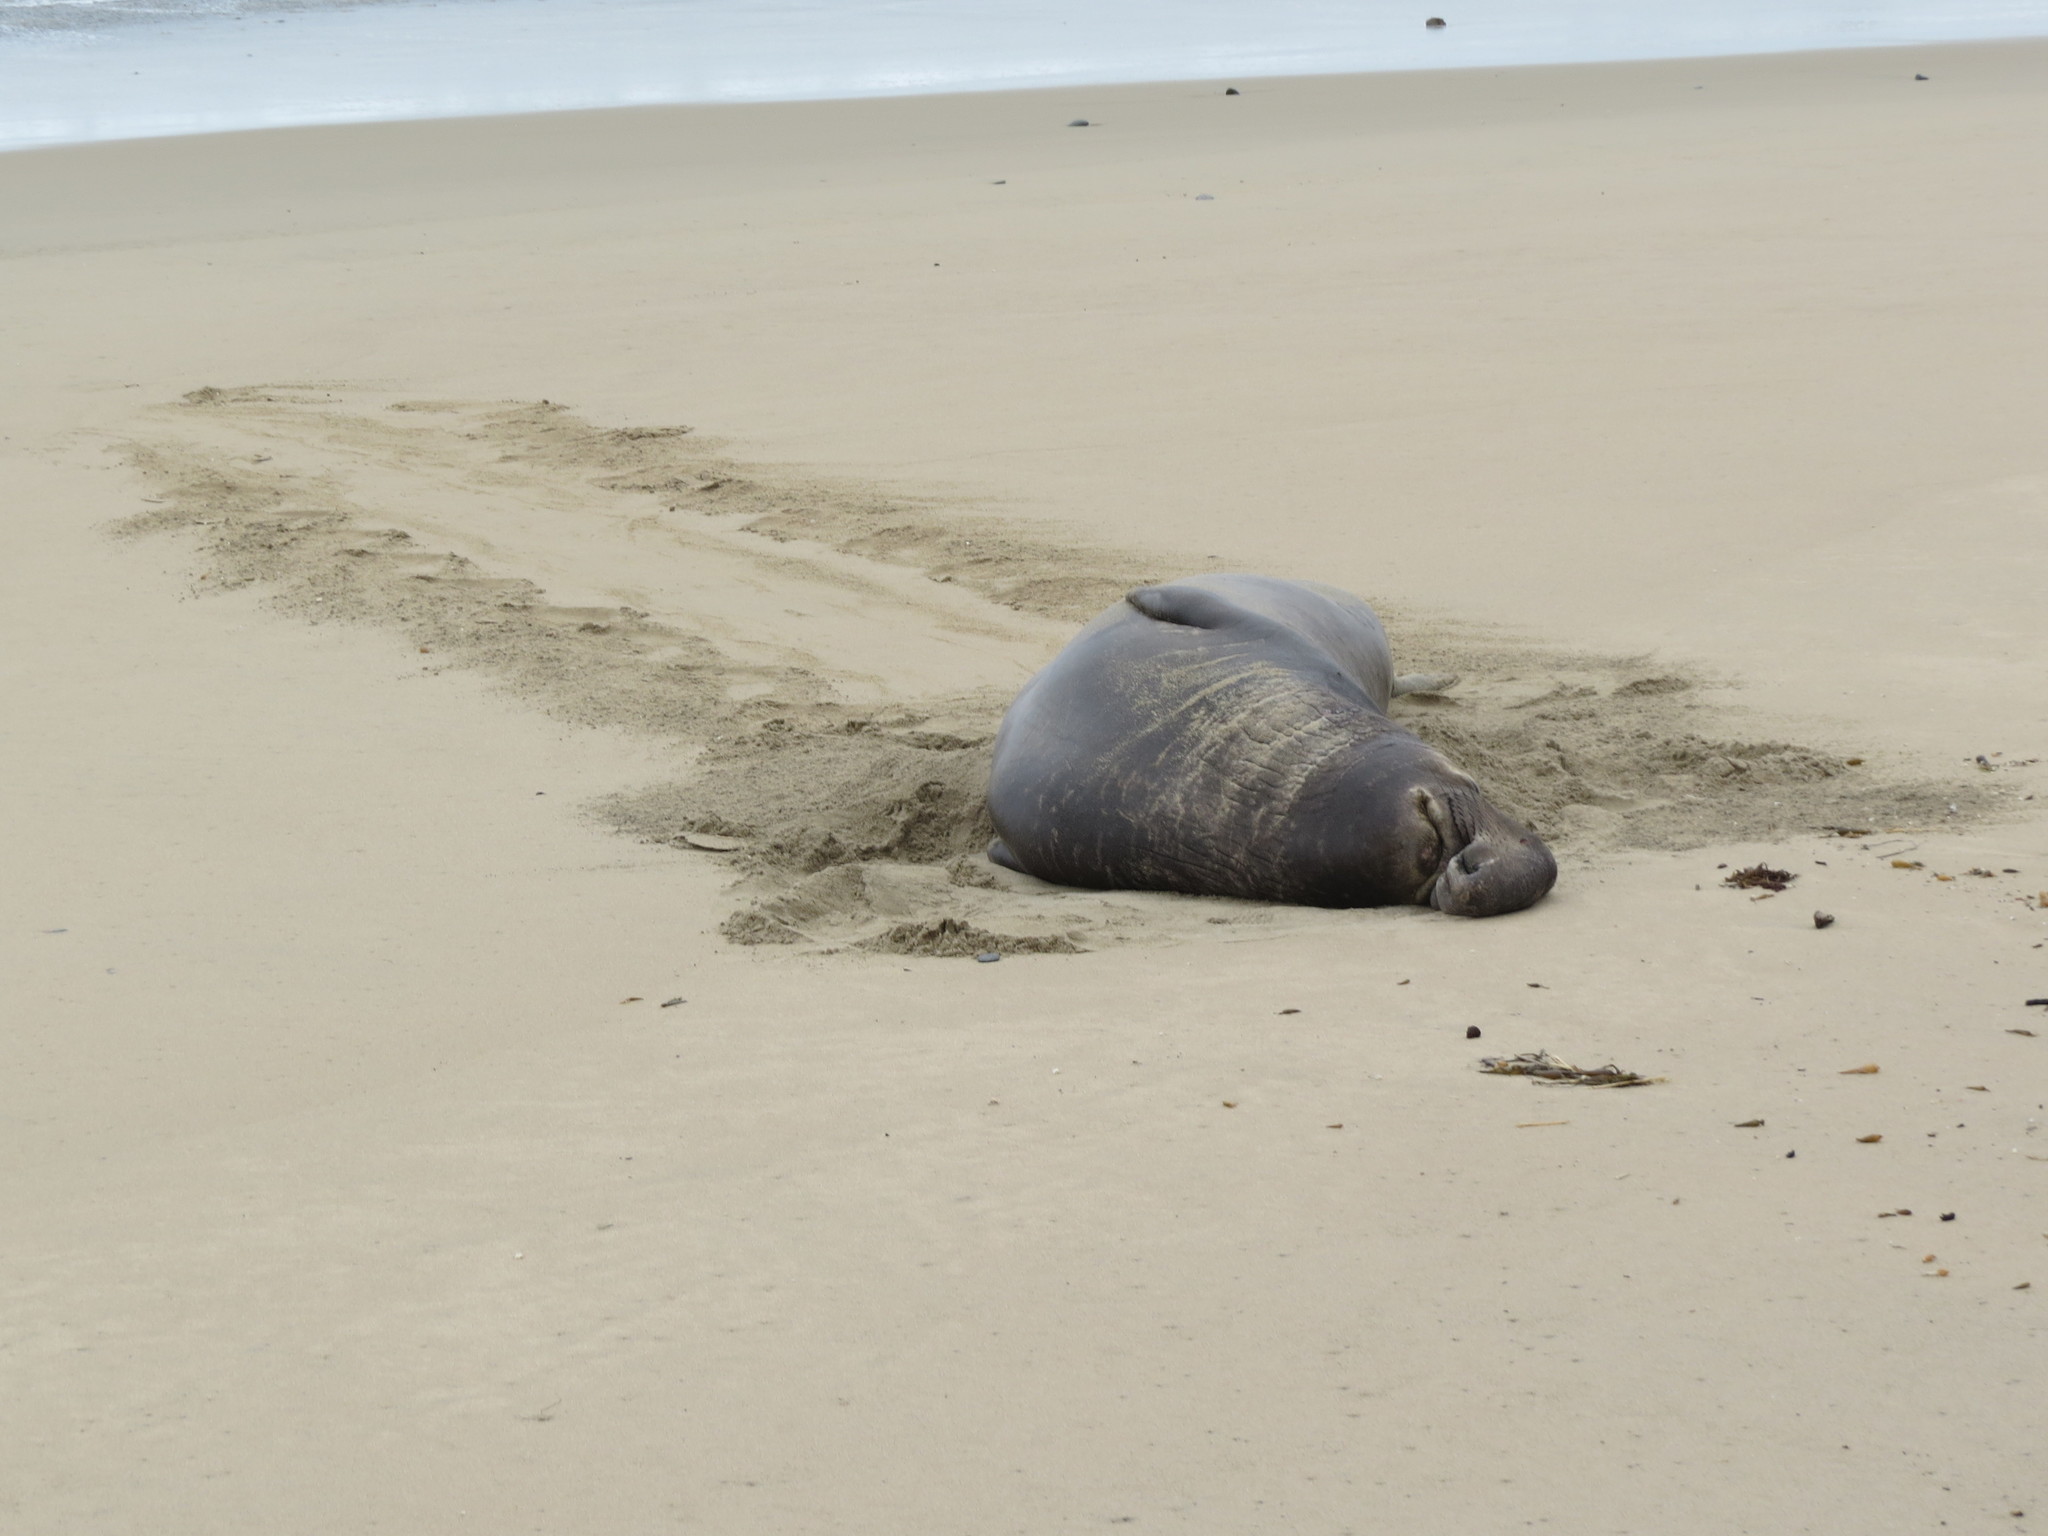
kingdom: Animalia
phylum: Chordata
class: Mammalia
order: Carnivora
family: Phocidae
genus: Mirounga
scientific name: Mirounga angustirostris
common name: Northern elephant seal
